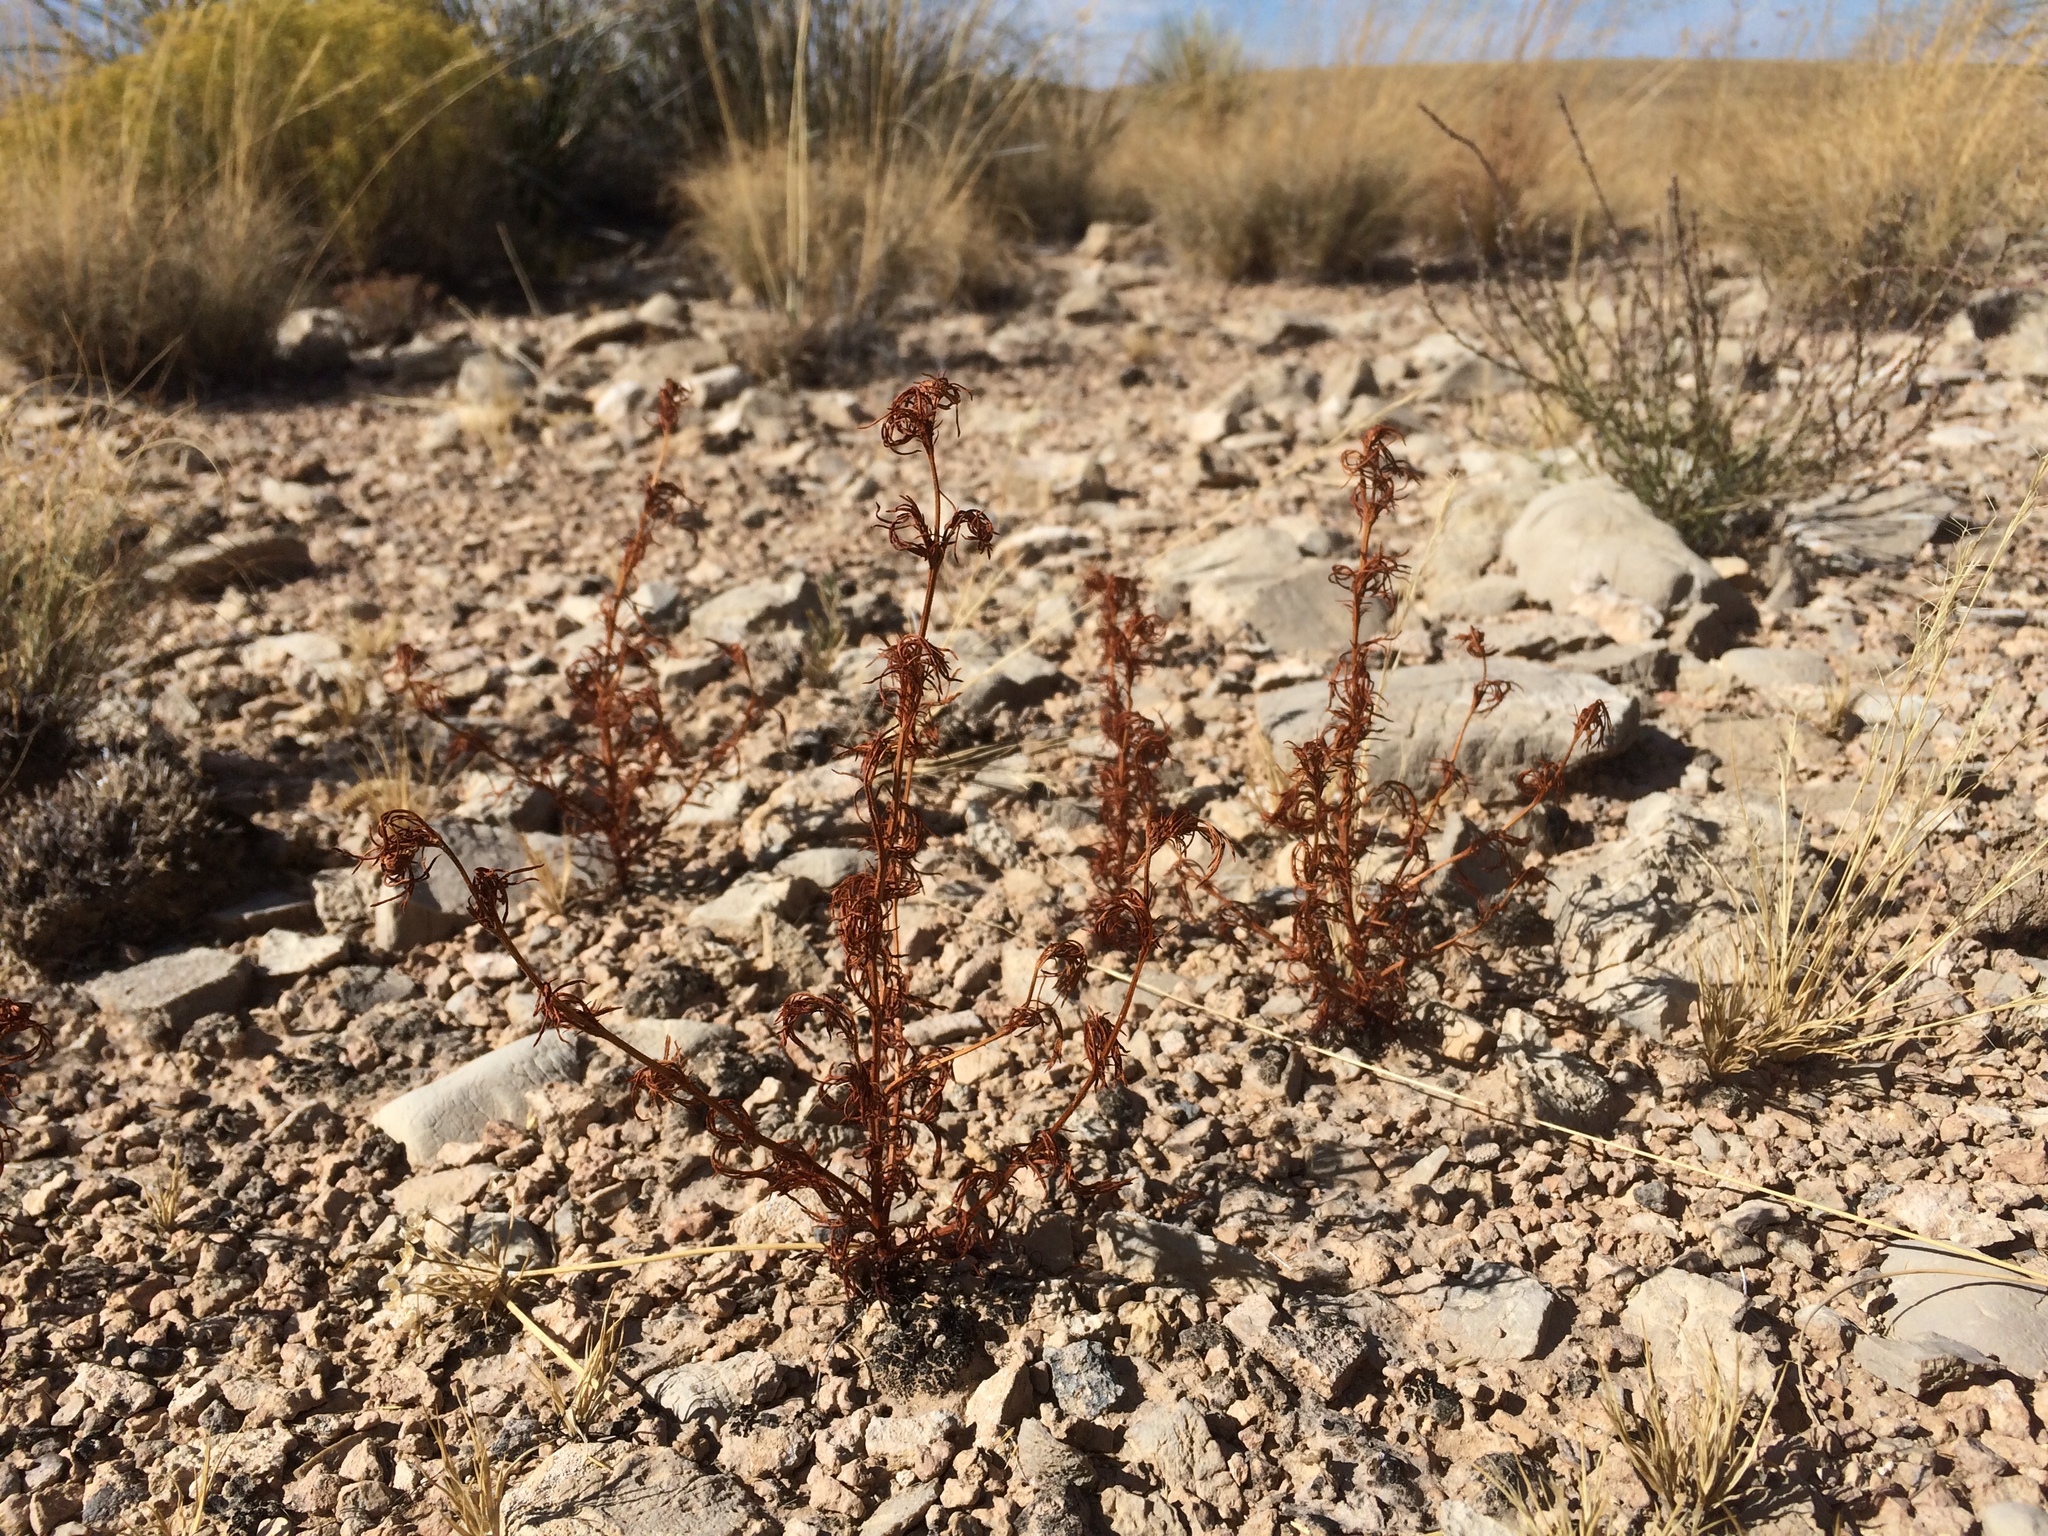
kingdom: Plantae
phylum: Tracheophyta
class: Magnoliopsida
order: Asterales
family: Asteraceae
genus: Dyssodia
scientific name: Dyssodia papposa
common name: Dogweed
